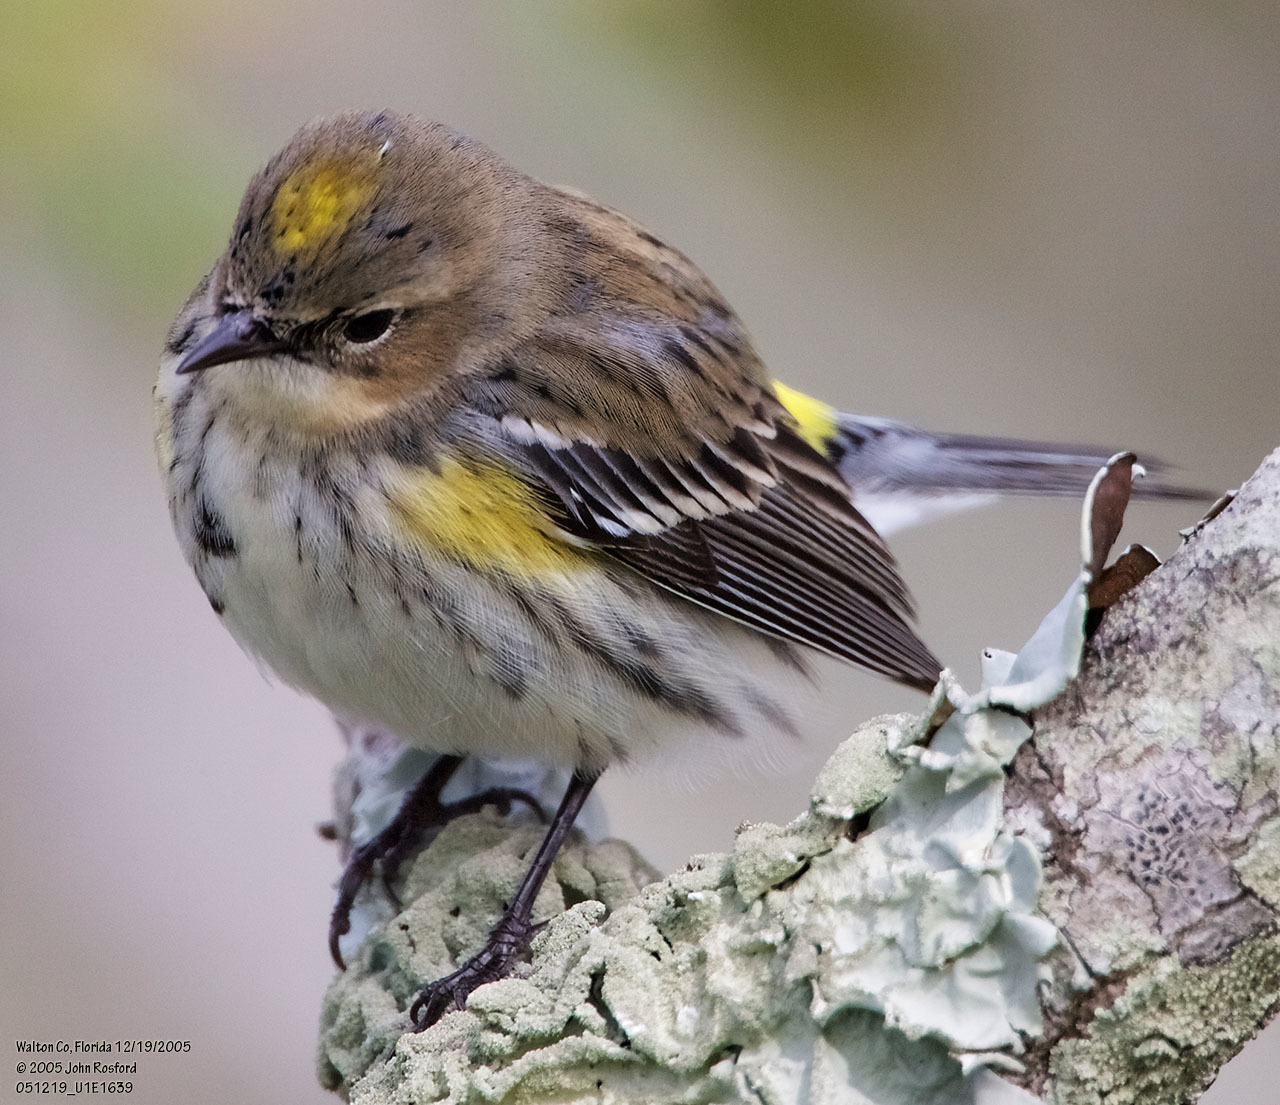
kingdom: Animalia
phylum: Chordata
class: Aves
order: Passeriformes
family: Parulidae
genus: Setophaga
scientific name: Setophaga coronata
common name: Myrtle warbler
